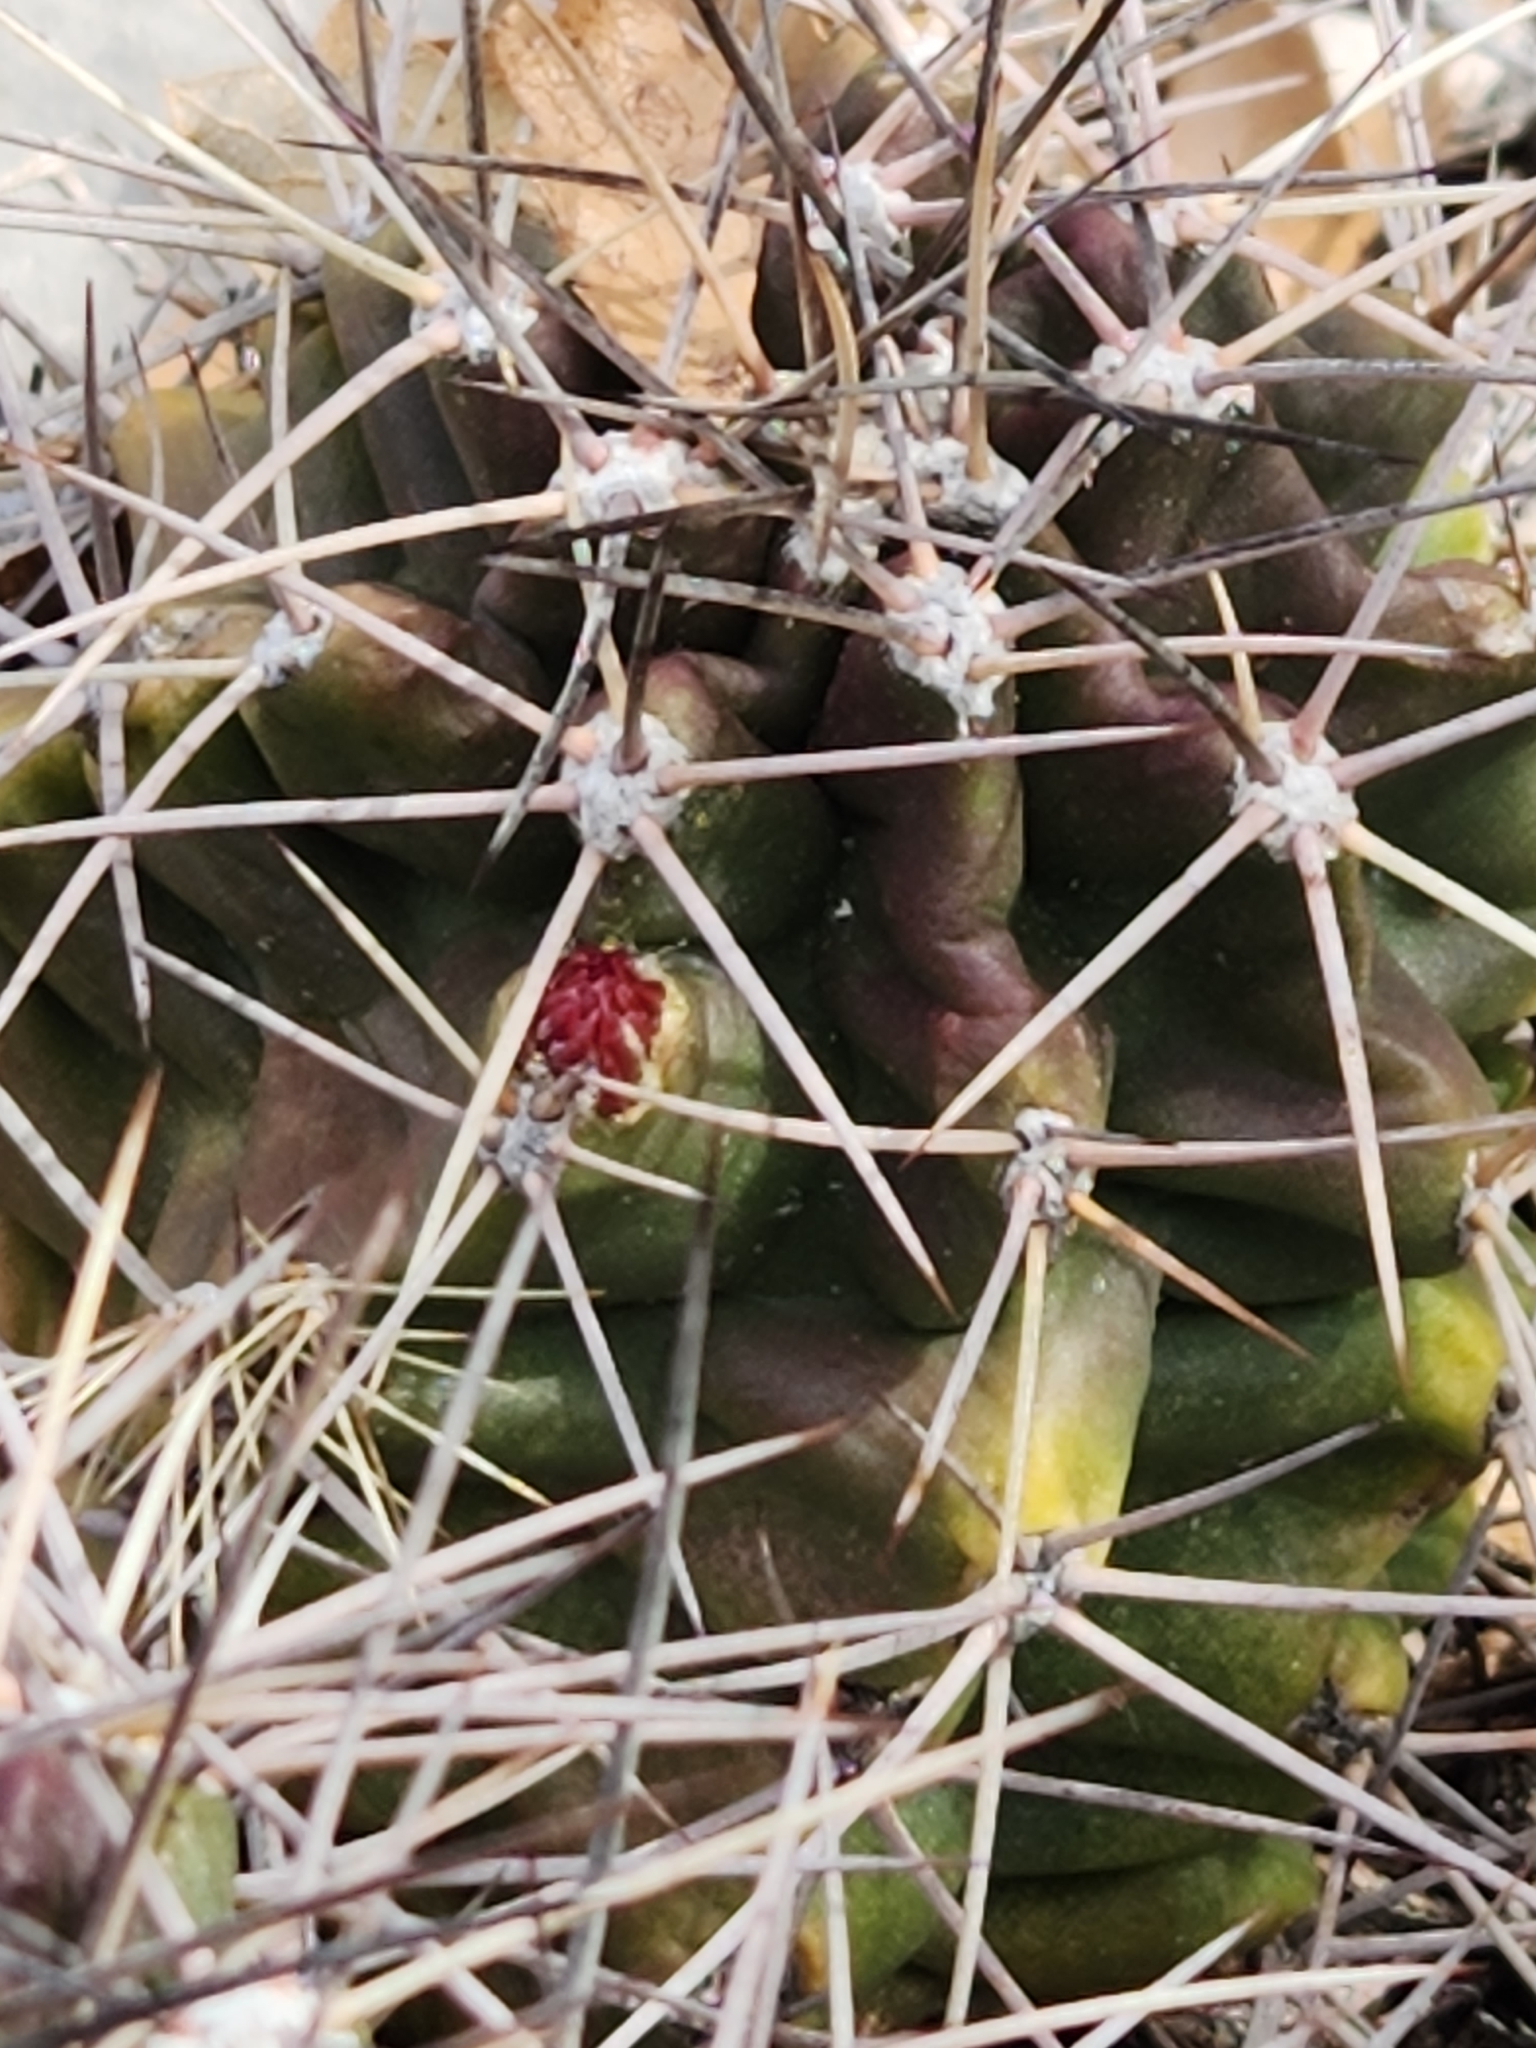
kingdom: Plantae
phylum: Tracheophyta
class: Magnoliopsida
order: Caryophyllales
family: Cactaceae
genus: Echinocereus
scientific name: Echinocereus coccineus
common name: Scarlet hedgehog cactus
